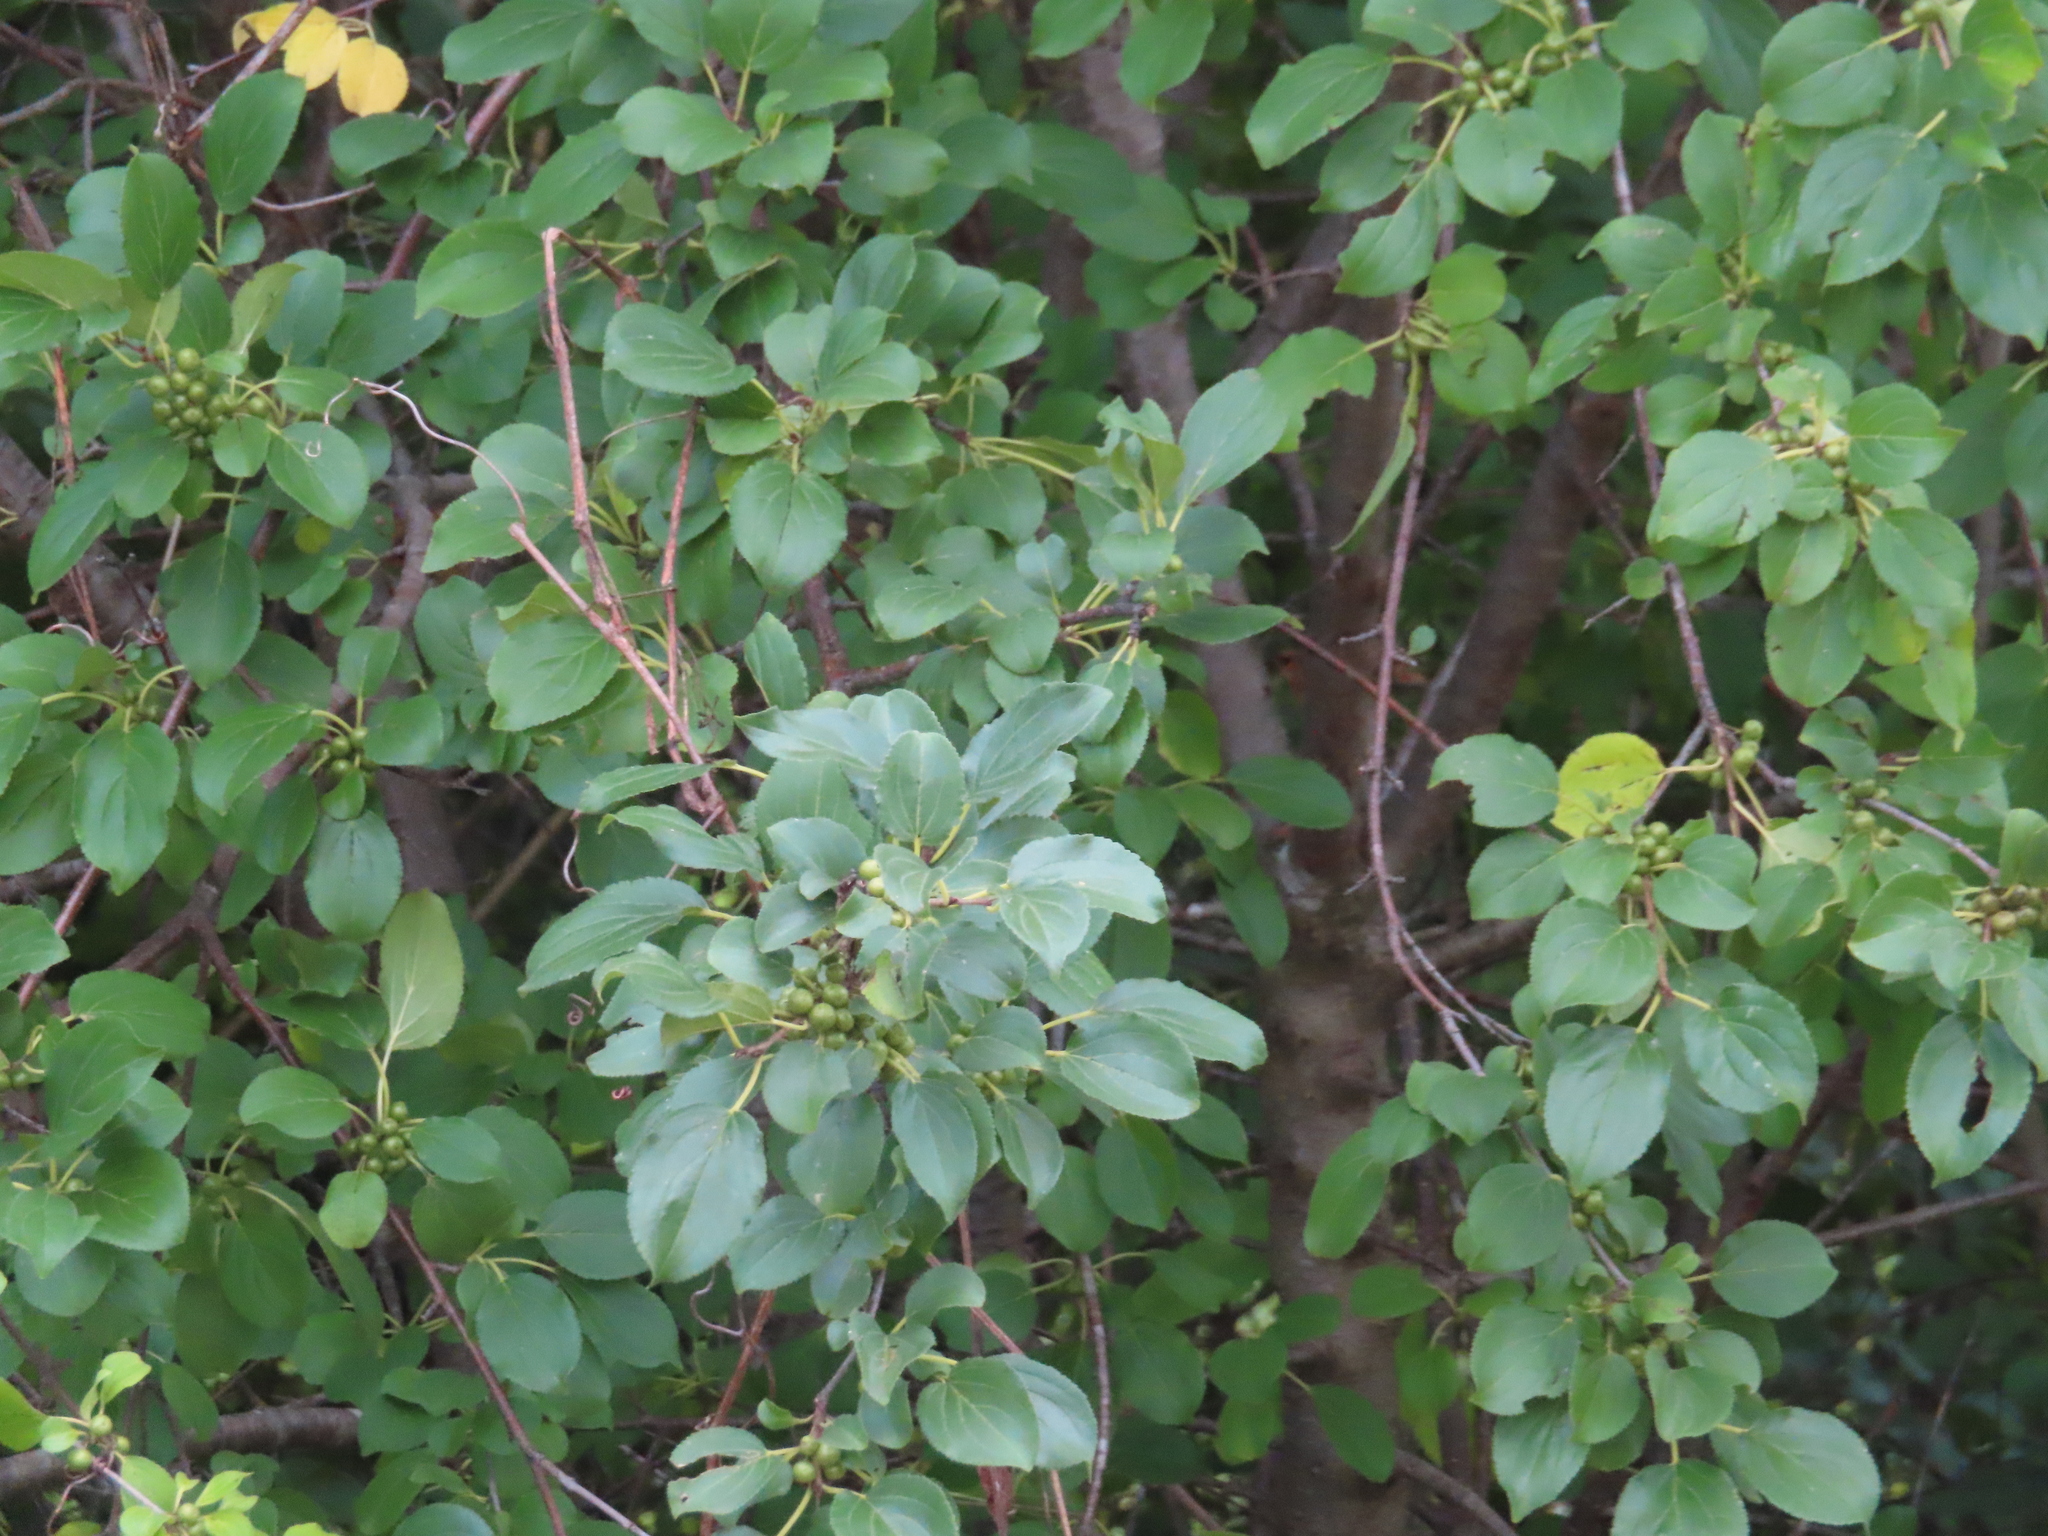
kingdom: Plantae
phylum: Tracheophyta
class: Magnoliopsida
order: Rosales
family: Rhamnaceae
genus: Rhamnus
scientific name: Rhamnus cathartica
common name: Common buckthorn
